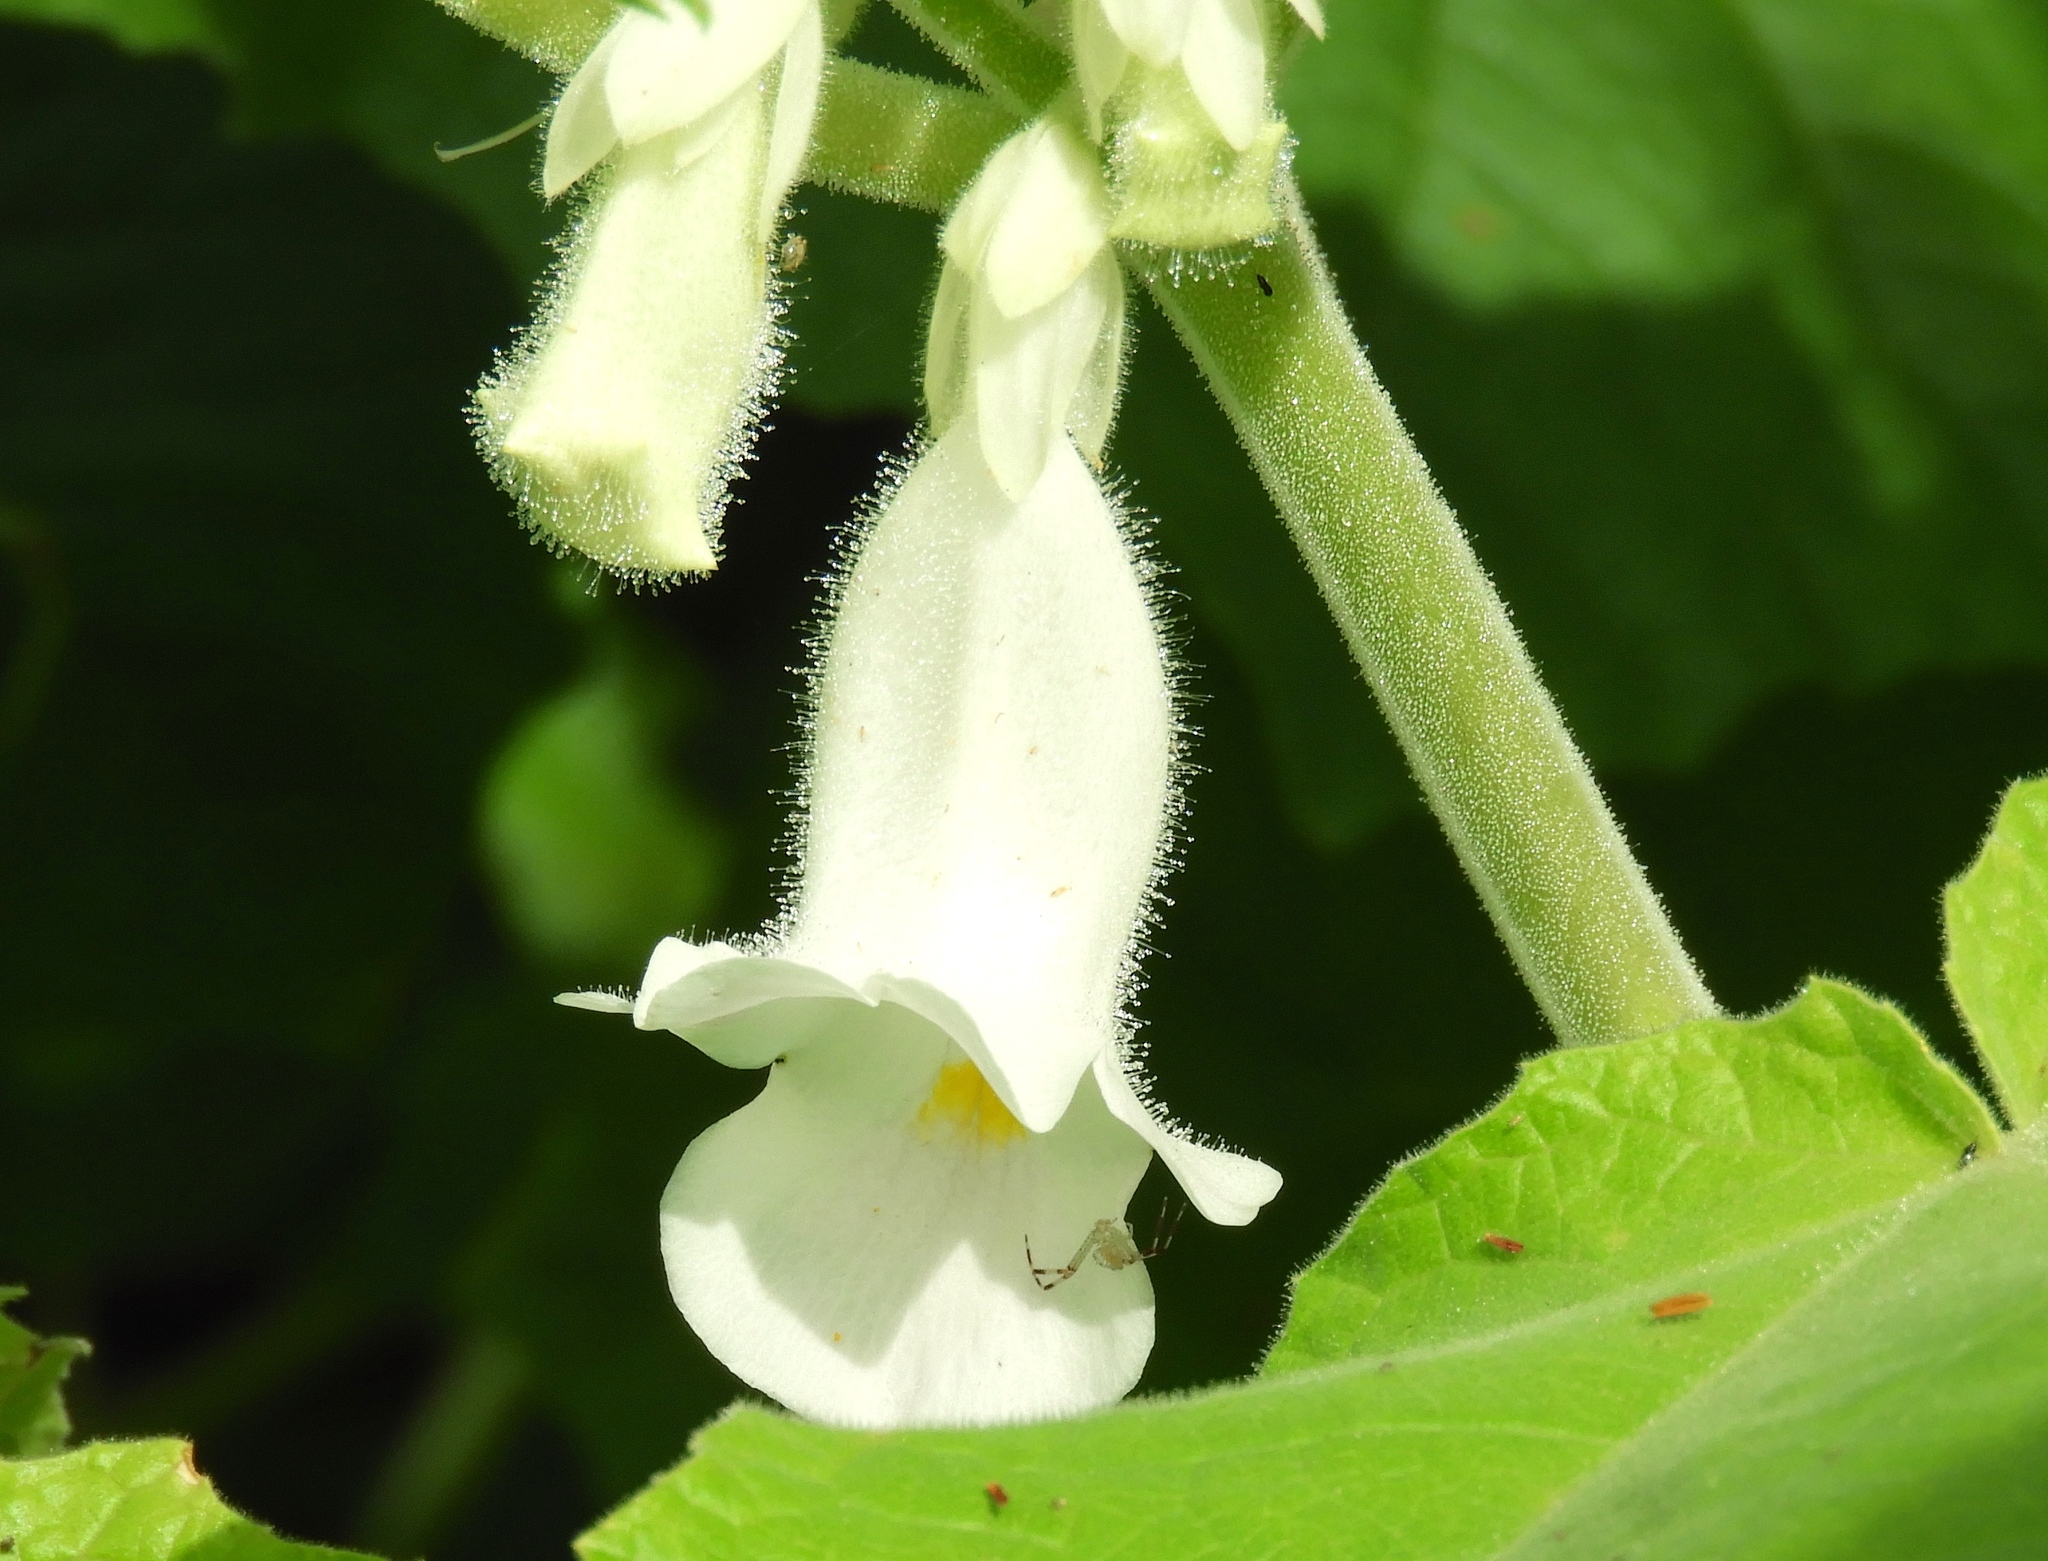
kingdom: Plantae
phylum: Tracheophyta
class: Magnoliopsida
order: Lamiales
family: Martyniaceae
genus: Martynia
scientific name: Martynia annua
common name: Tiger's-claw
